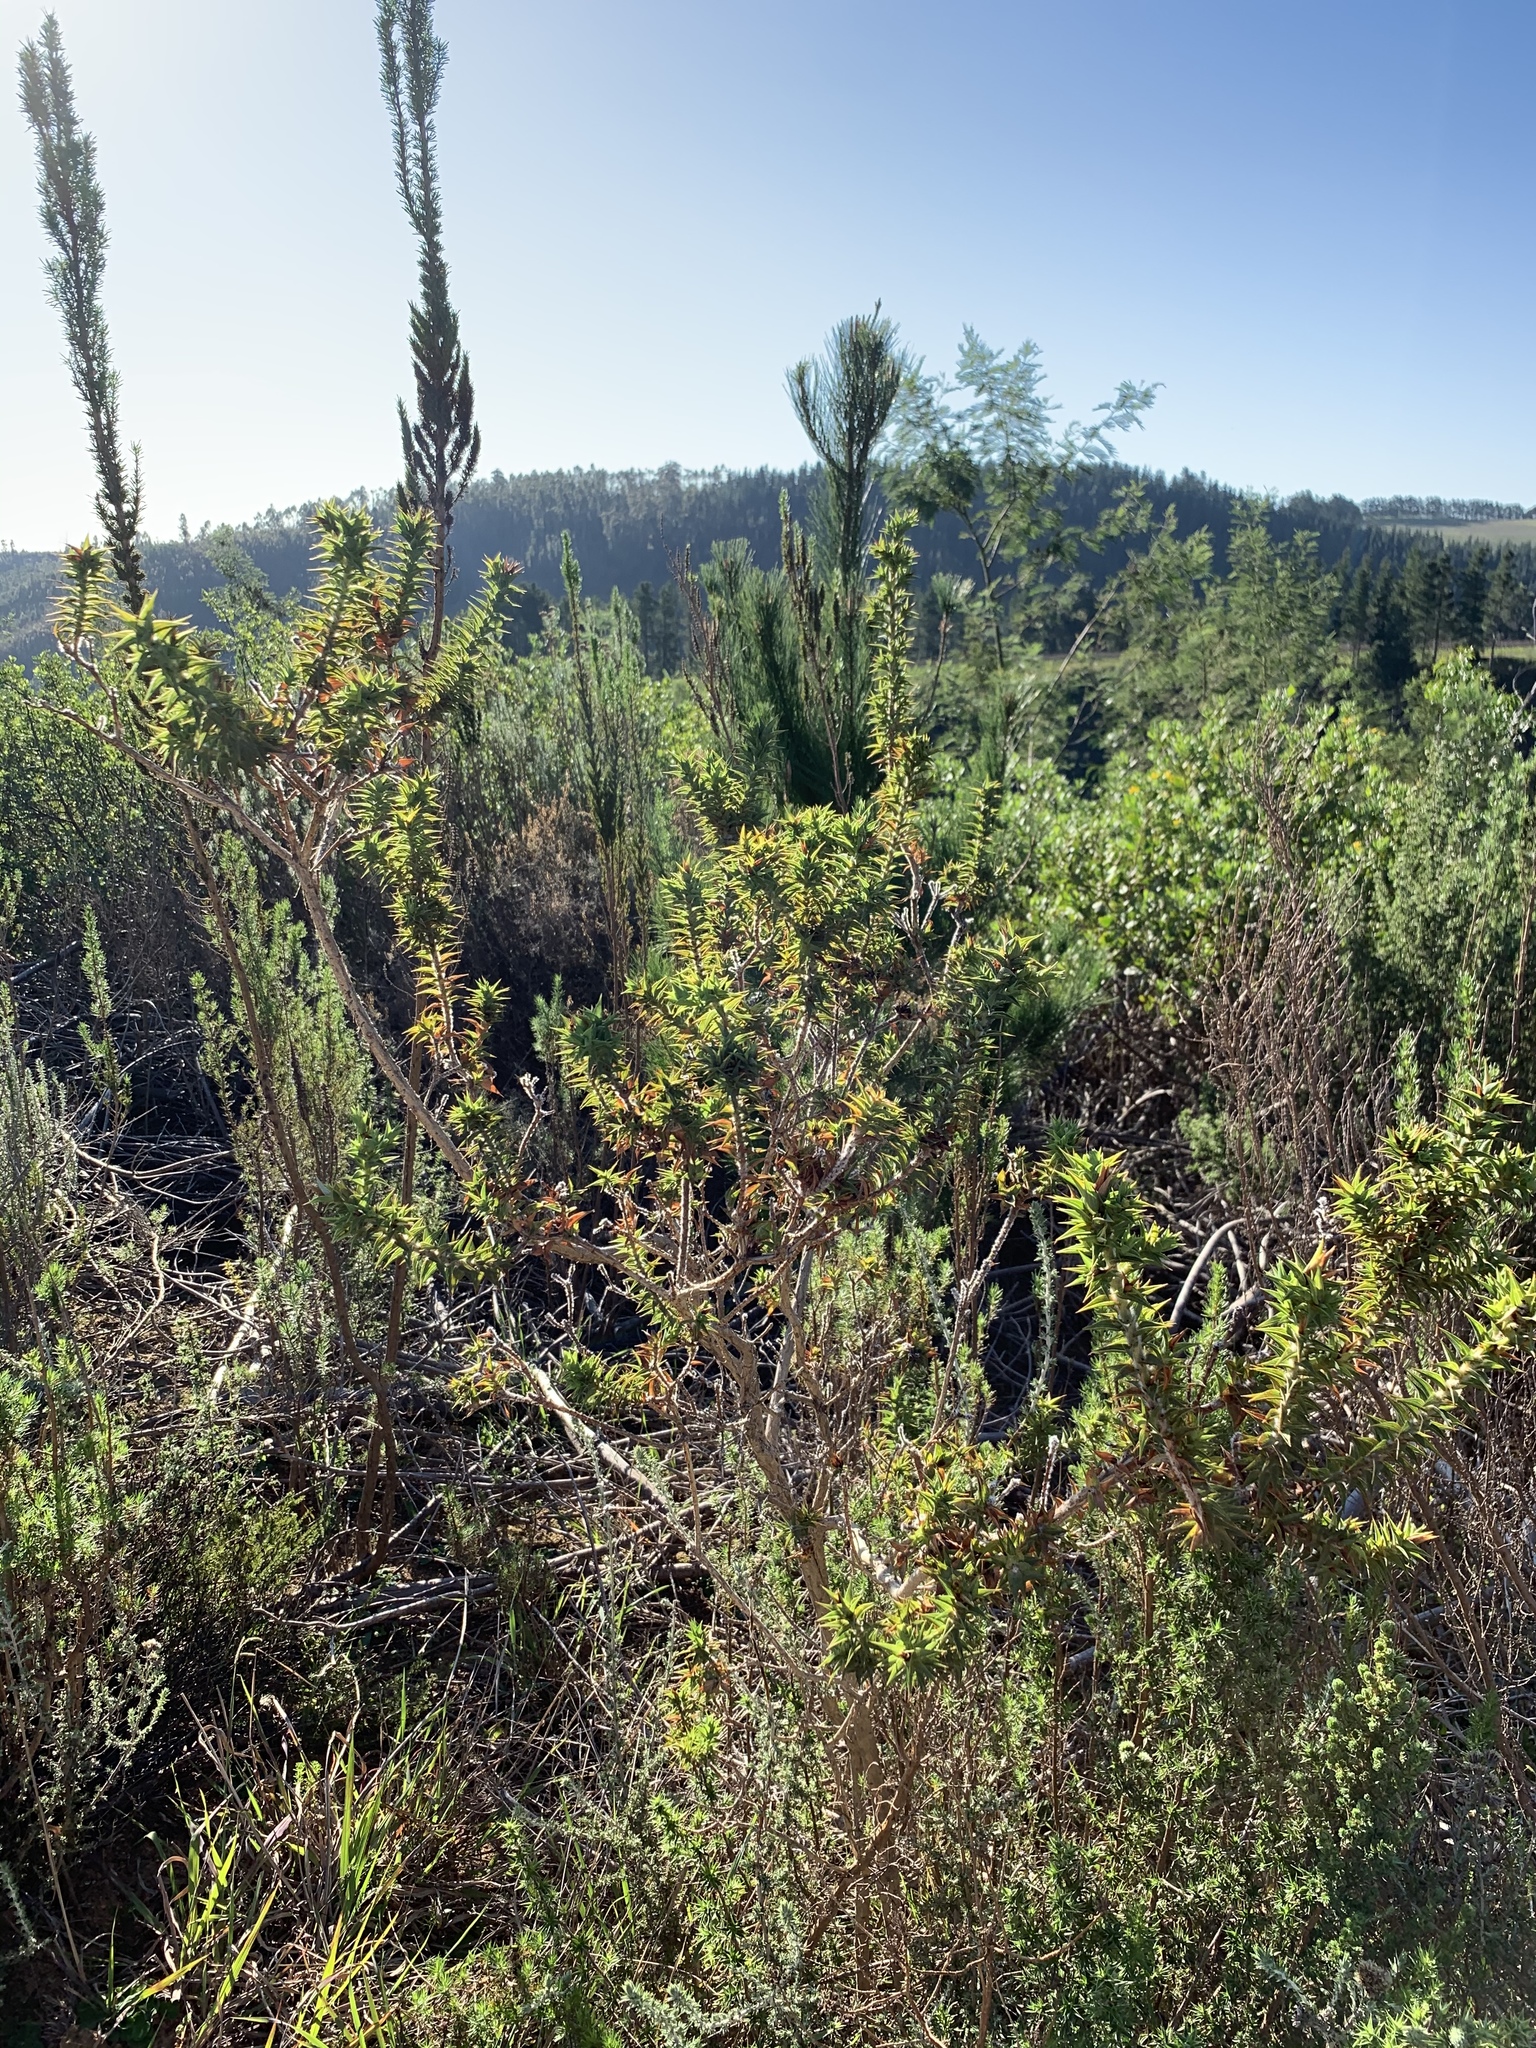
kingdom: Plantae
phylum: Tracheophyta
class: Magnoliopsida
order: Fabales
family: Fabaceae
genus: Aspalathus
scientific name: Aspalathus cordata
